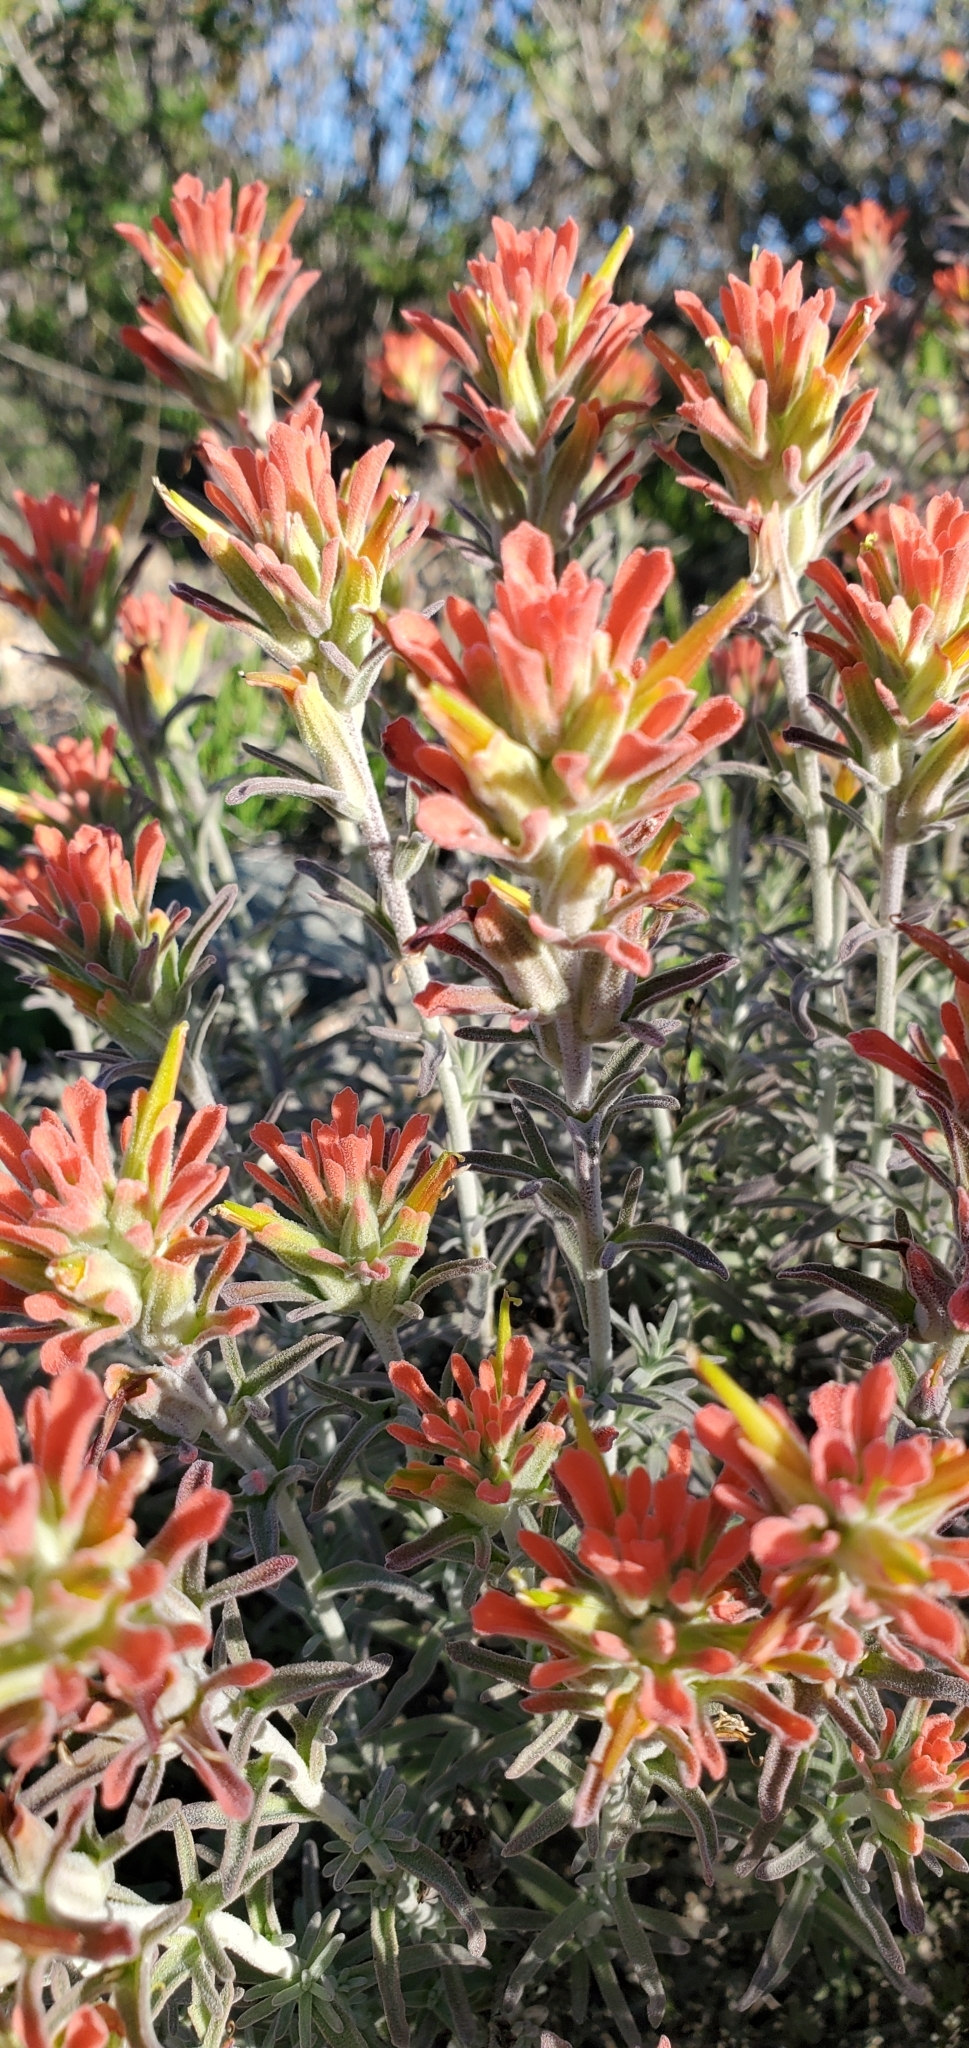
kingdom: Plantae
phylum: Tracheophyta
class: Magnoliopsida
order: Lamiales
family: Orobanchaceae
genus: Castilleja
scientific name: Castilleja foliolosa
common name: Woolly indian paintbrush
